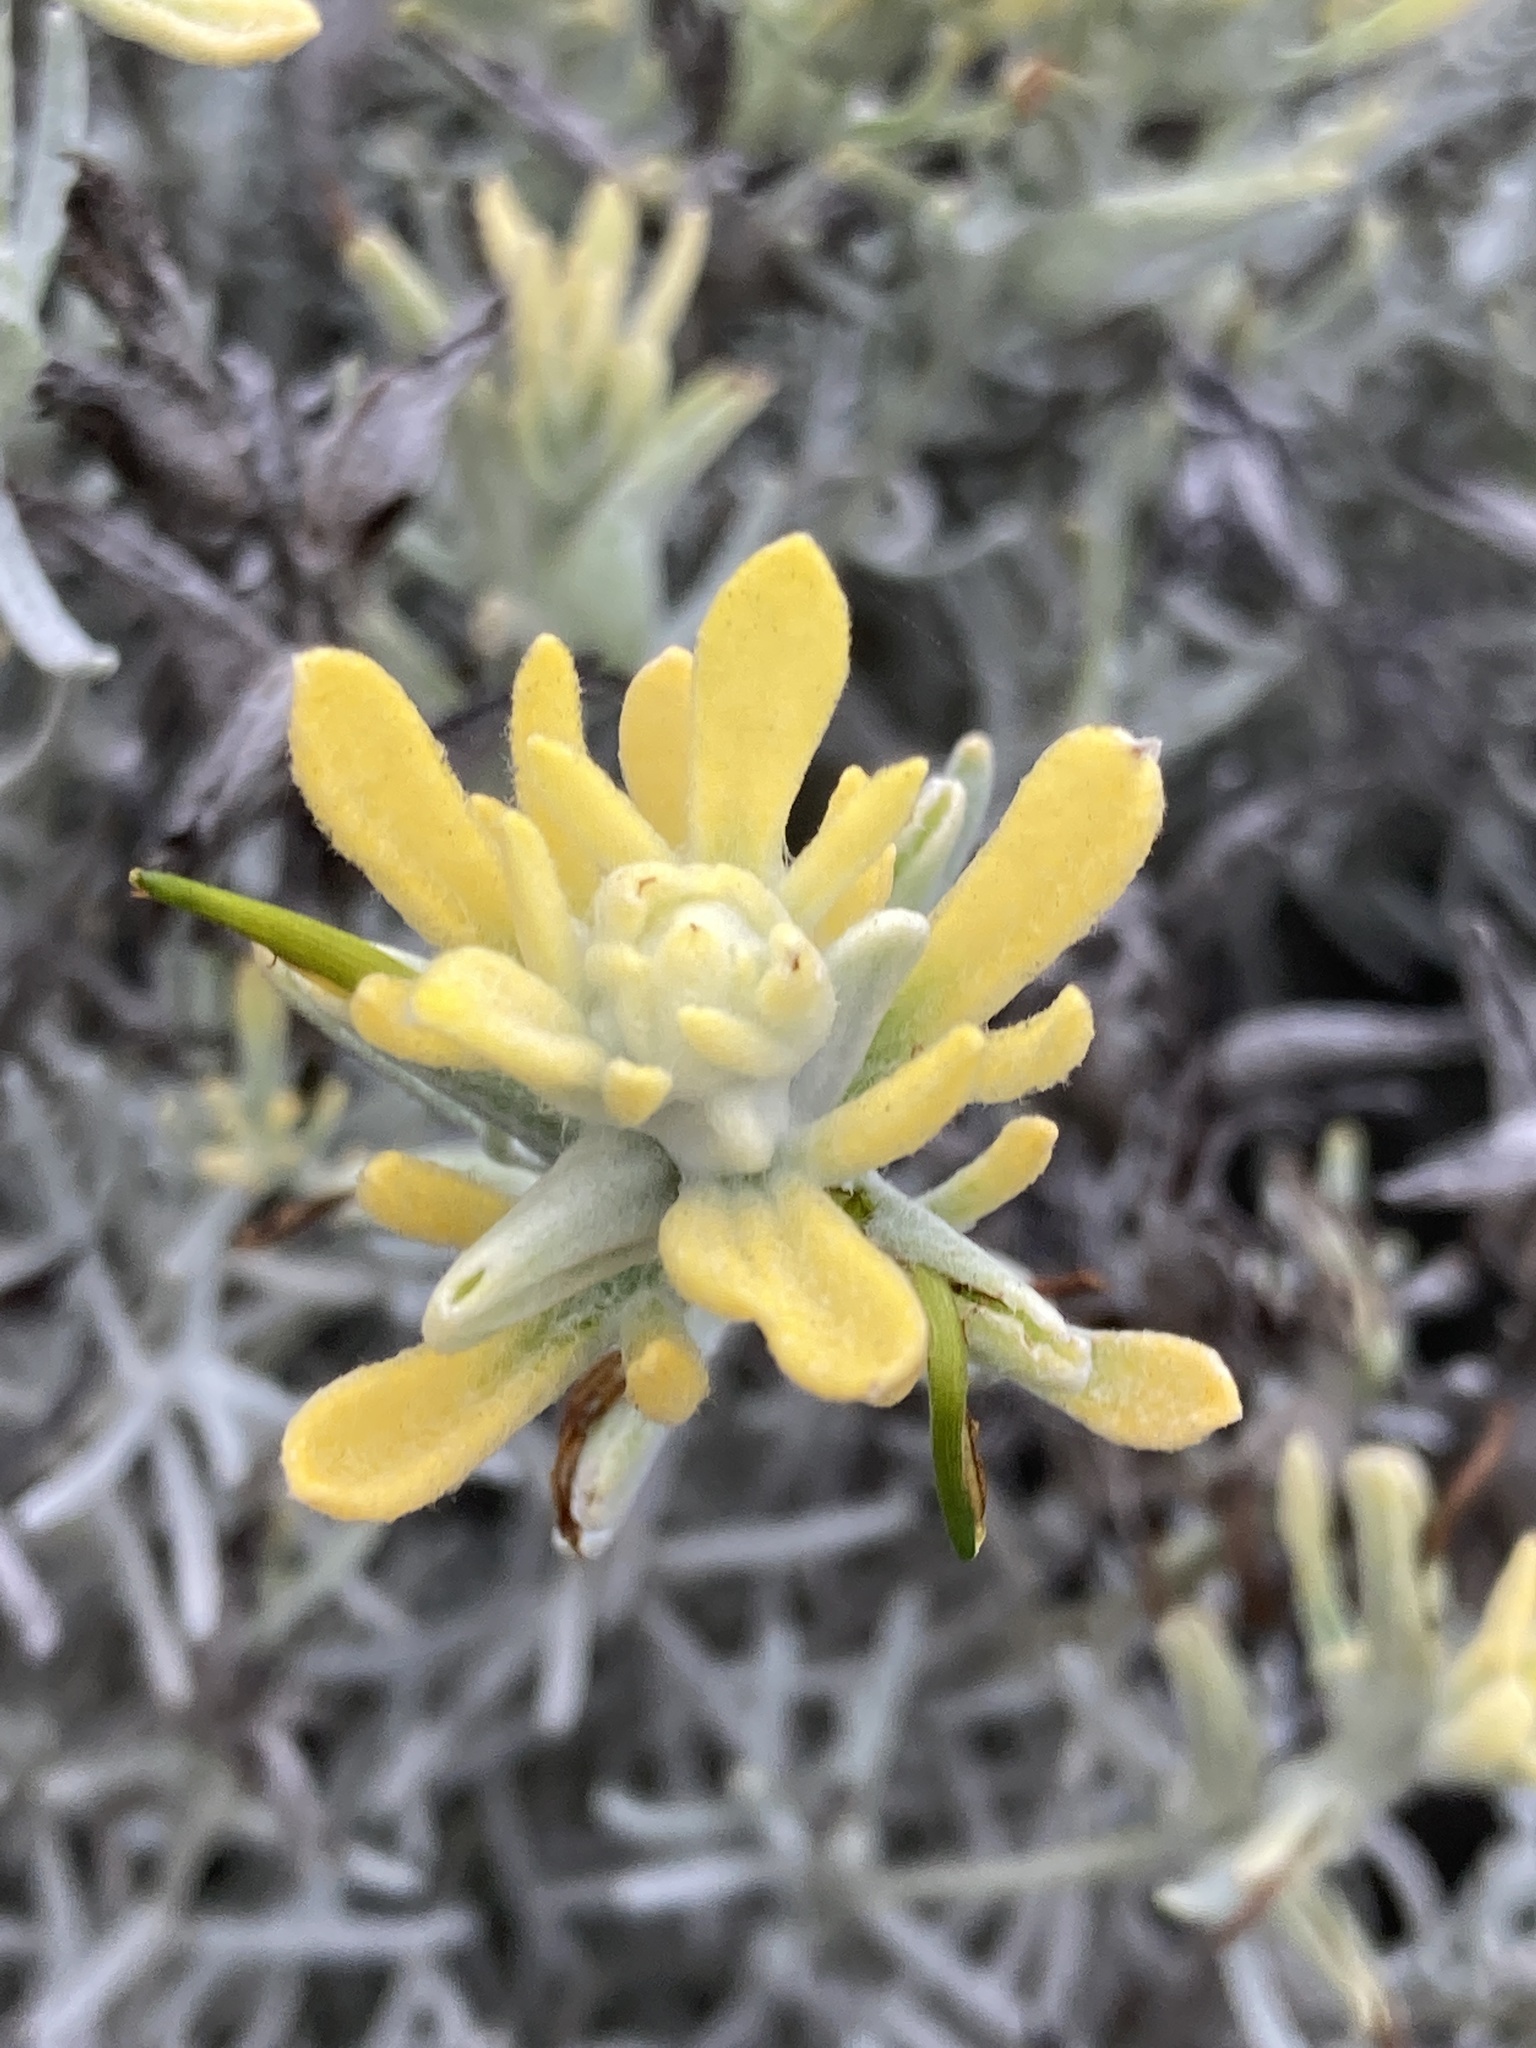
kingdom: Plantae
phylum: Tracheophyta
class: Magnoliopsida
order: Lamiales
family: Orobanchaceae
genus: Castilleja
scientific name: Castilleja hololeuca
